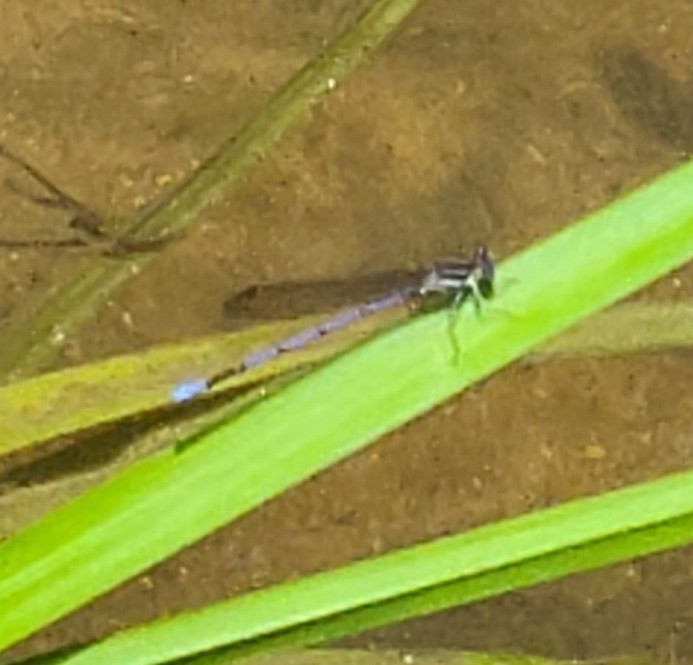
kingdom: Animalia
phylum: Arthropoda
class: Insecta
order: Odonata
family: Coenagrionidae
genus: Argia
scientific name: Argia fumipennis
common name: Variable dancer
